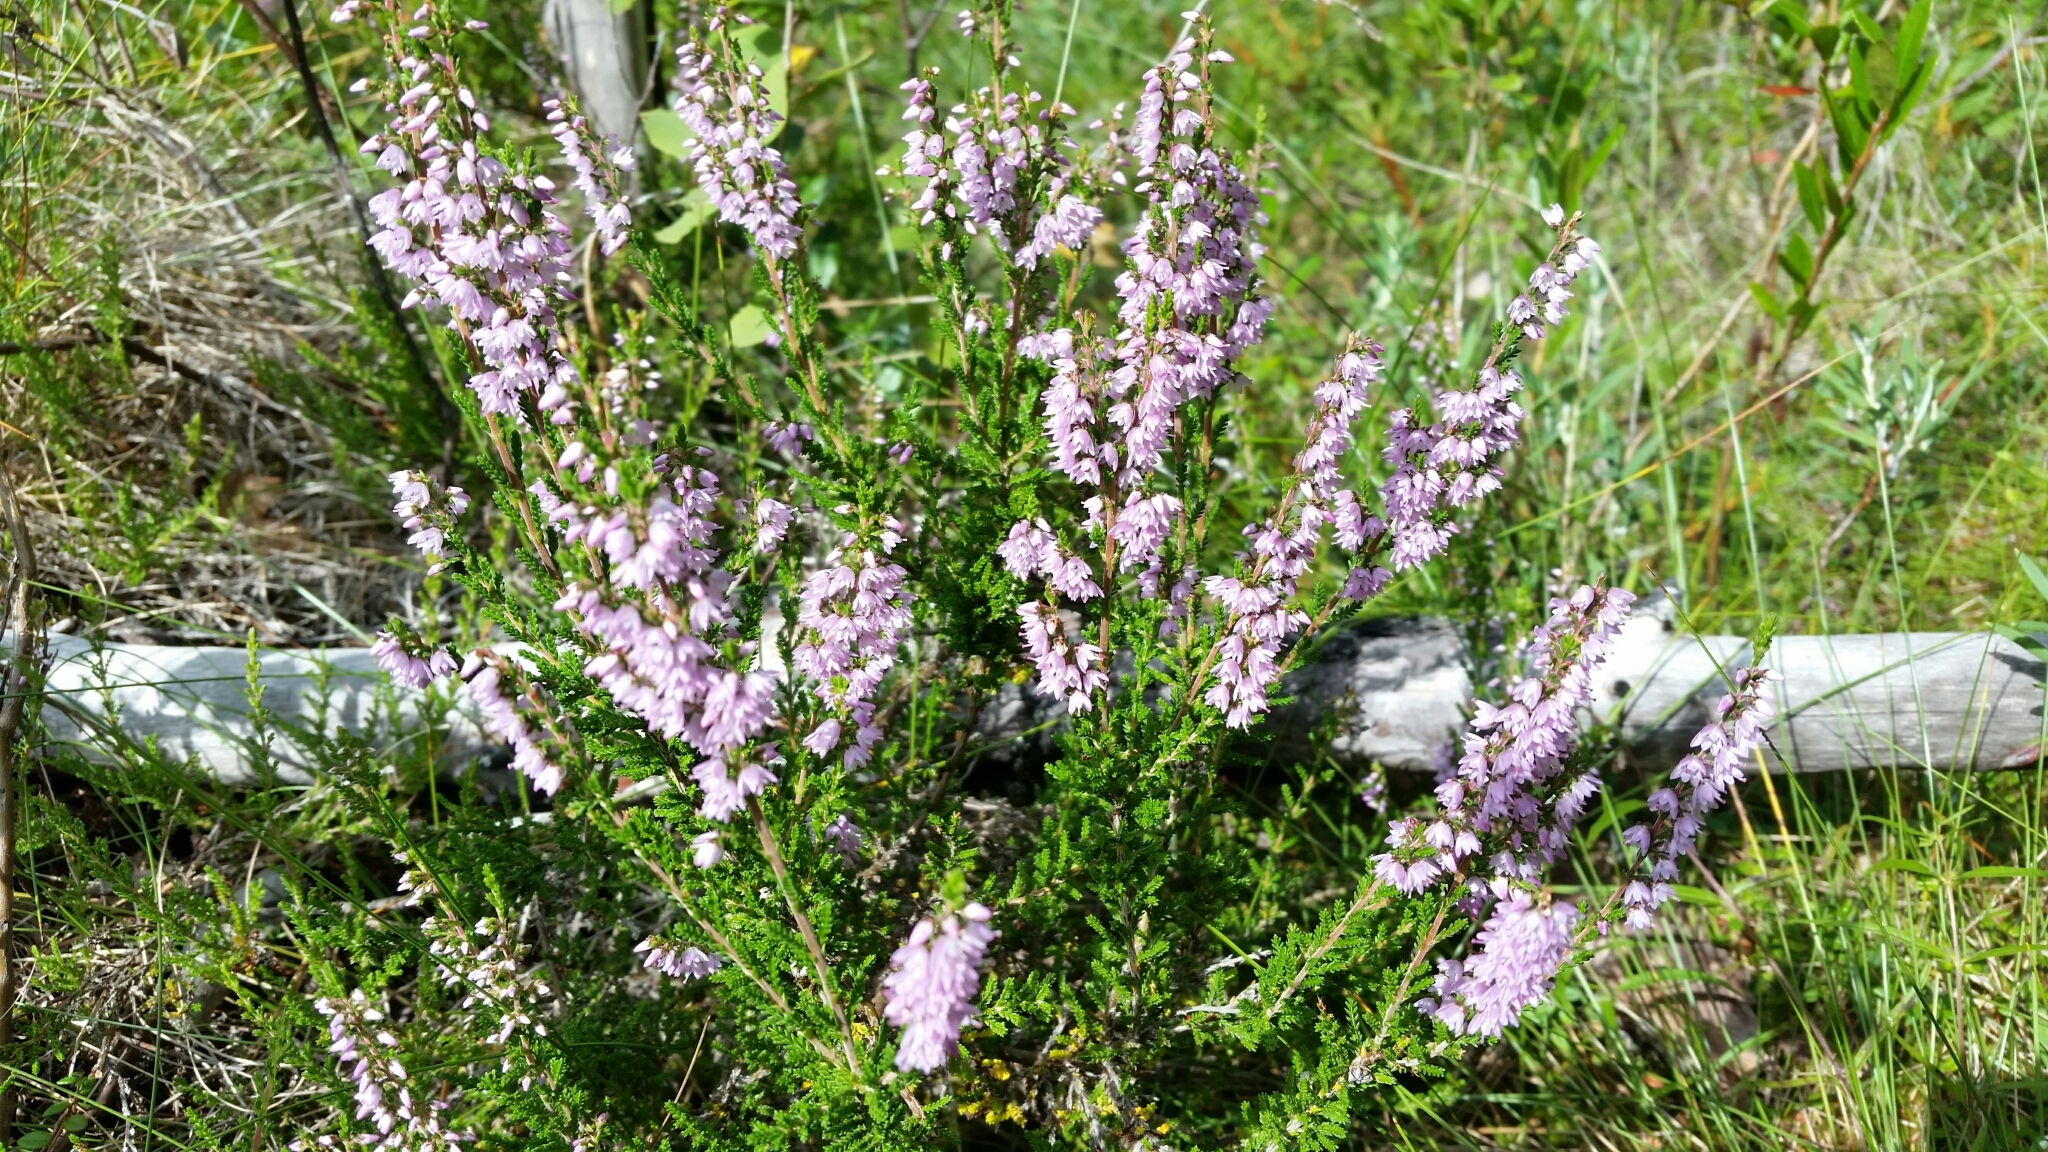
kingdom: Plantae
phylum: Tracheophyta
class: Magnoliopsida
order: Ericales
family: Ericaceae
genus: Calluna
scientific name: Calluna vulgaris
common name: Heather
